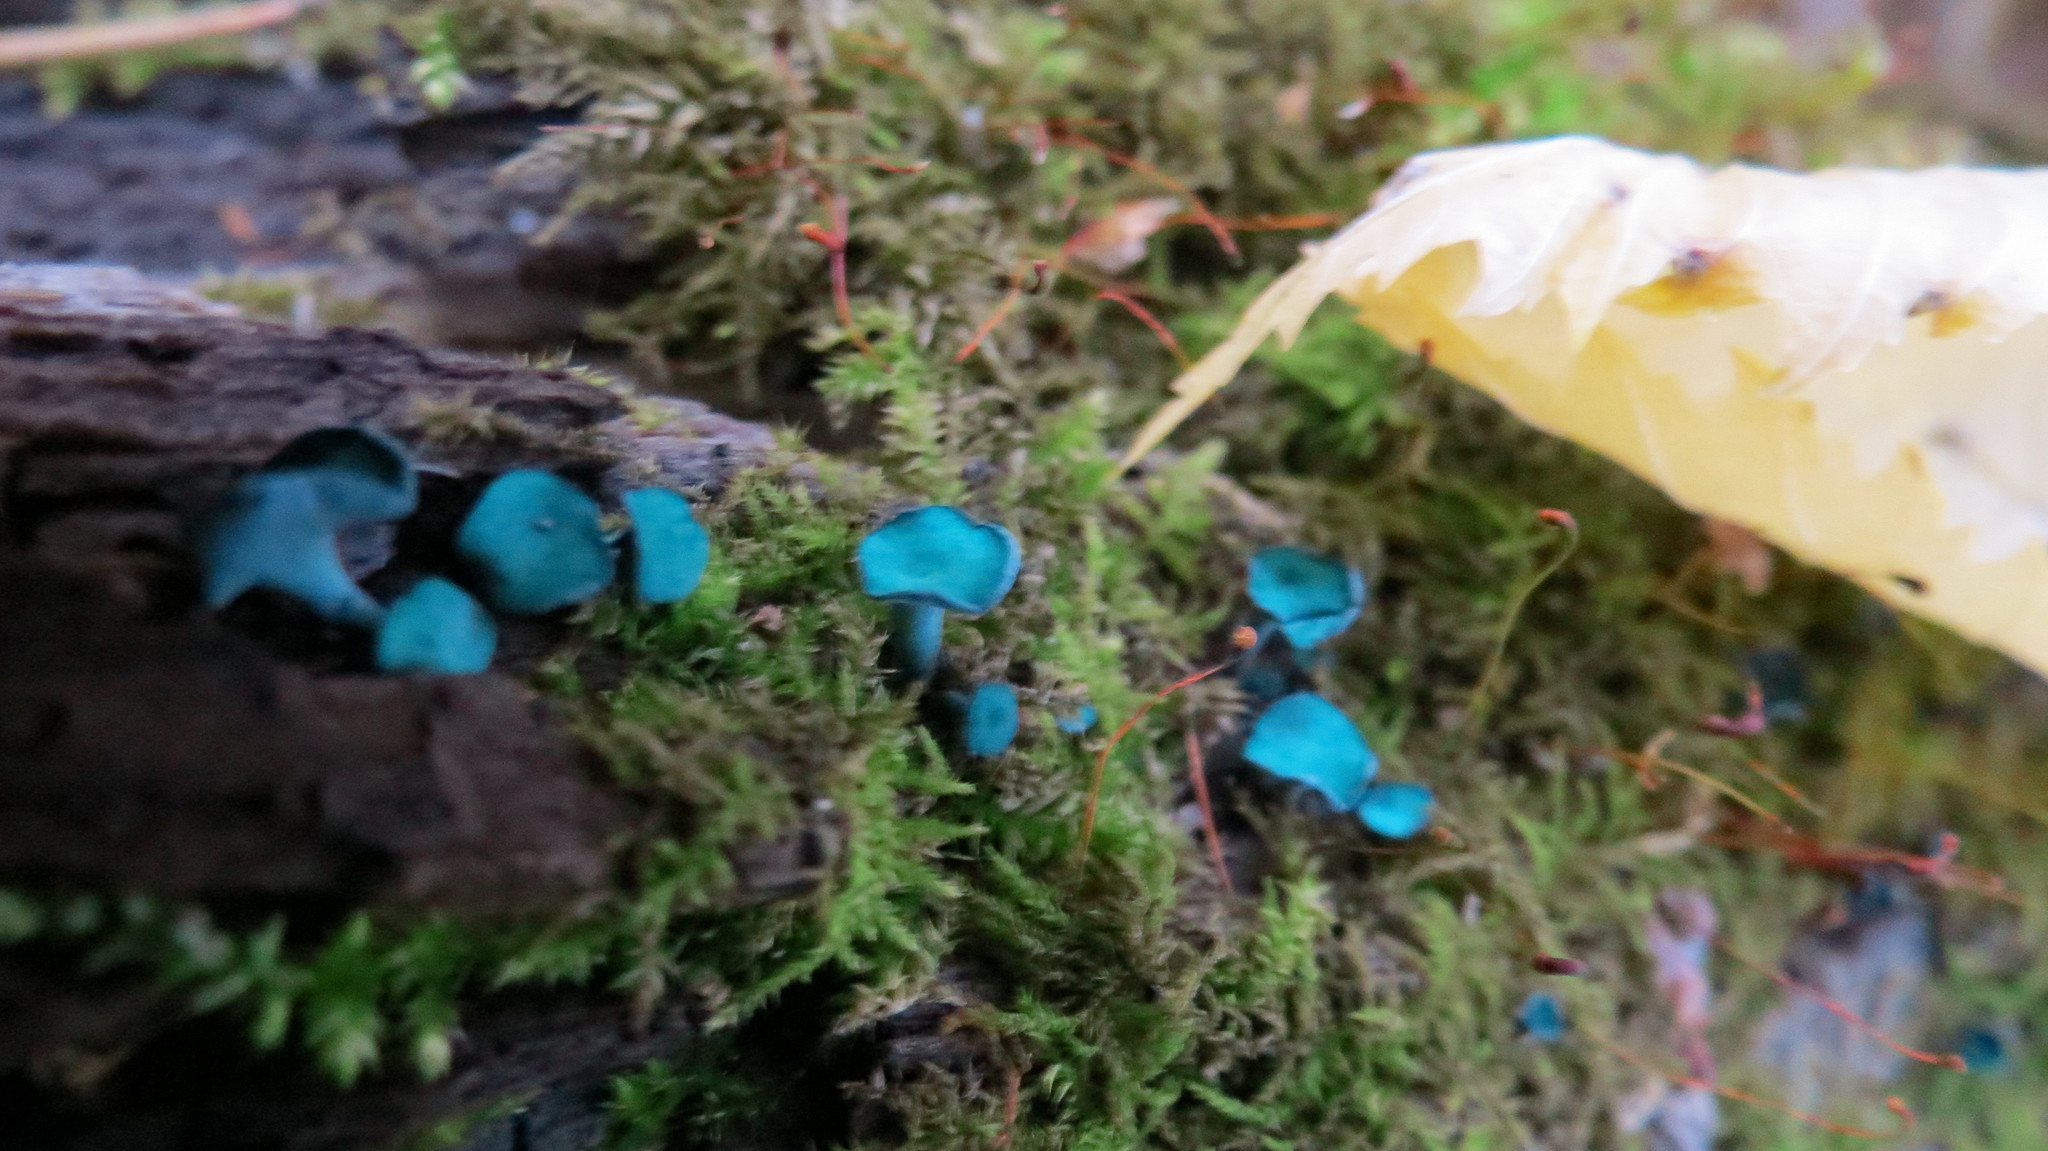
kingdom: Fungi
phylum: Ascomycota
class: Leotiomycetes
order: Helotiales
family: Chlorociboriaceae
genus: Chlorociboria
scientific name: Chlorociboria aeruginascens
